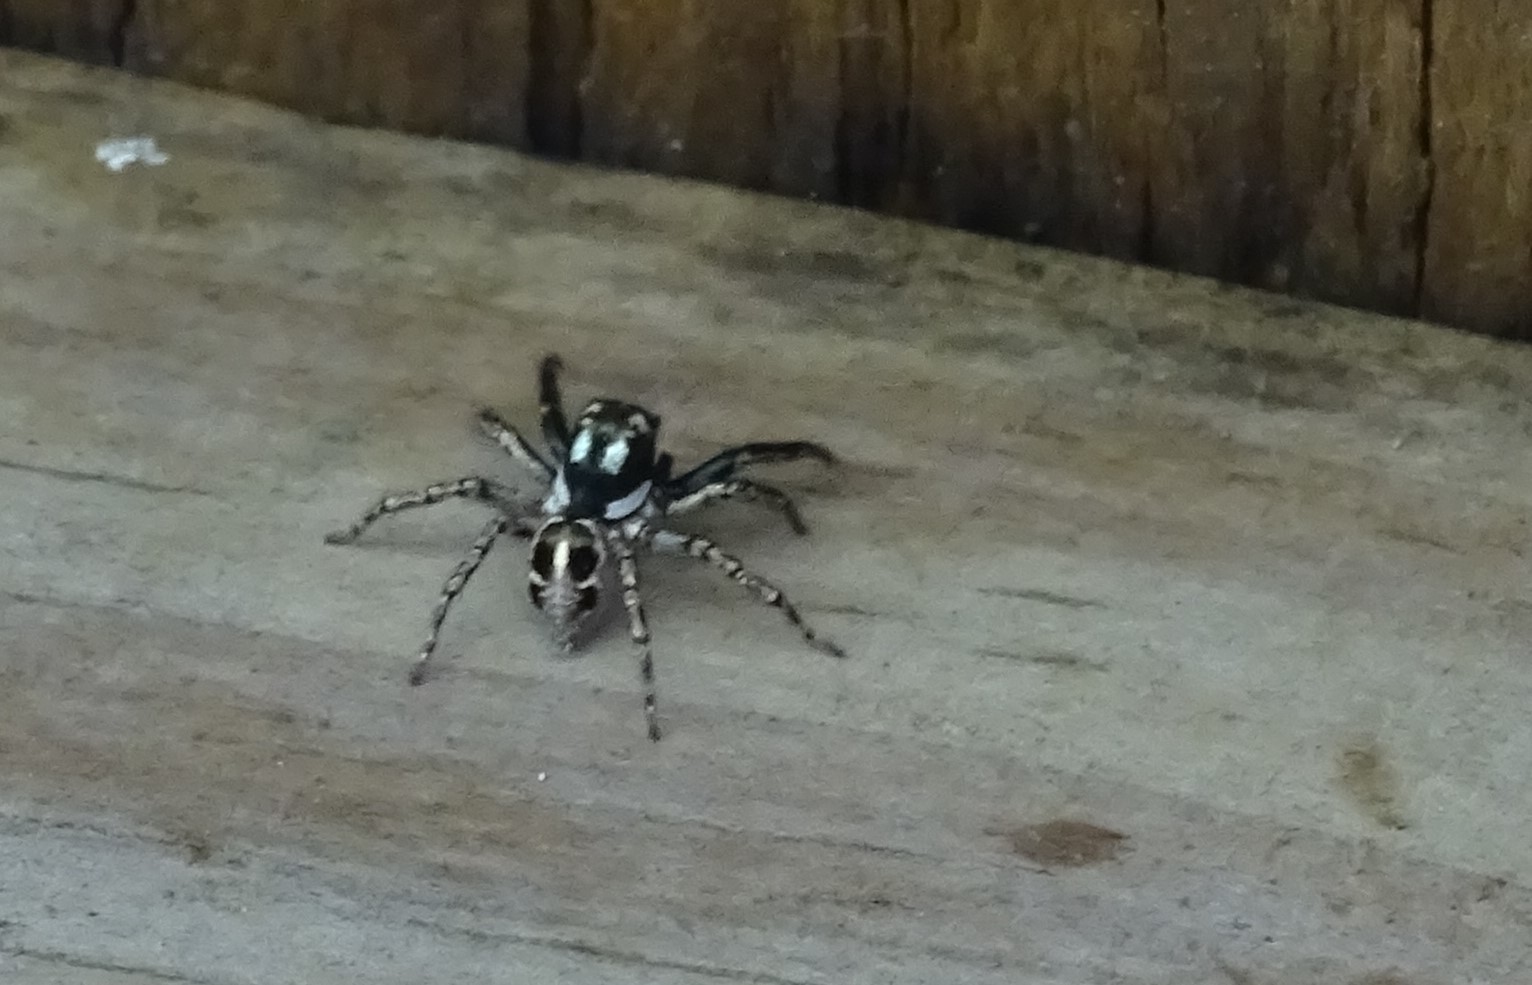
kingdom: Animalia
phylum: Arthropoda
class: Arachnida
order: Araneae
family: Salticidae
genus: Anasaitis
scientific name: Anasaitis canosa
